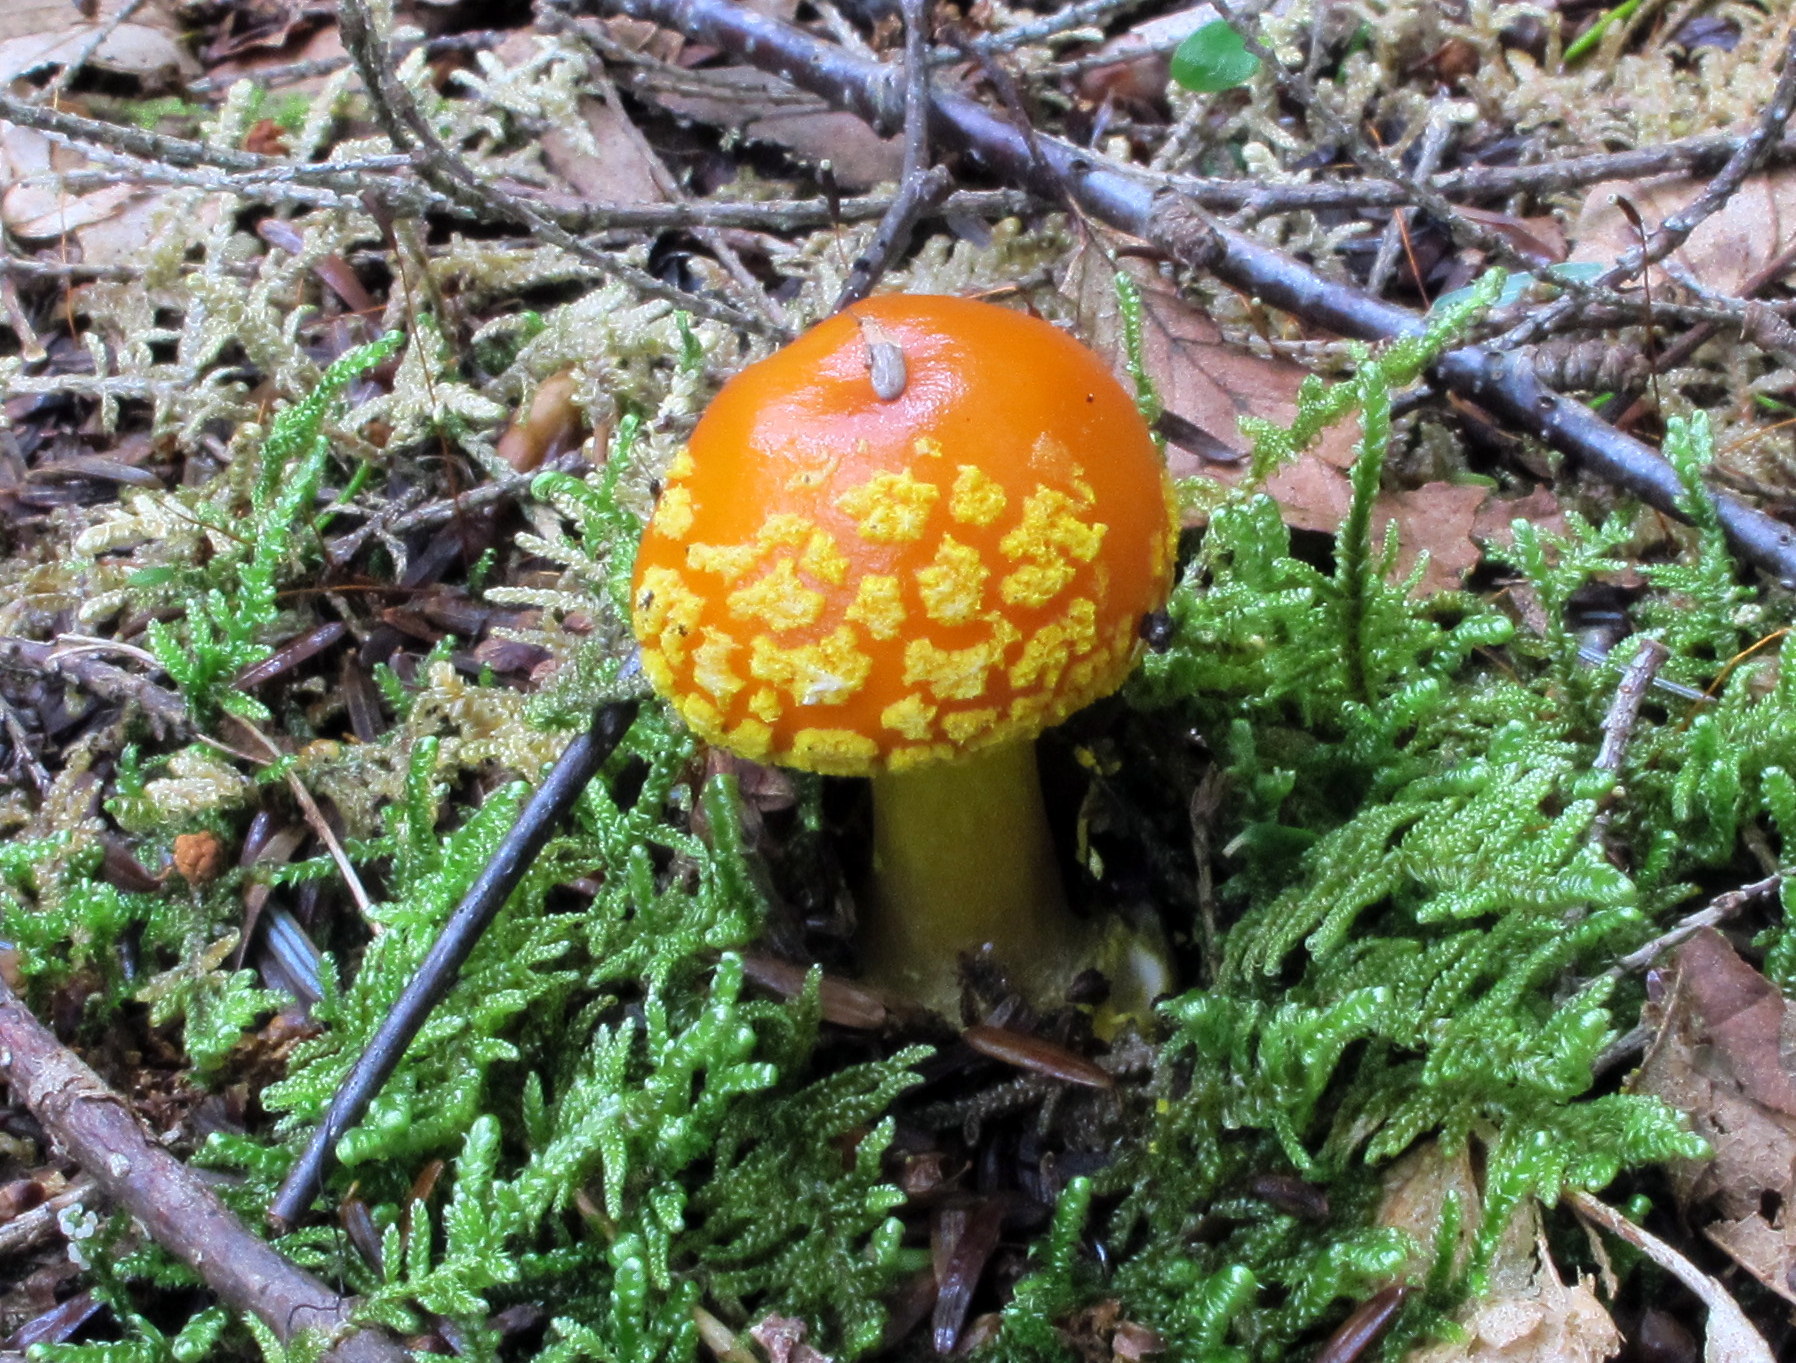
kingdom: Fungi
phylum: Basidiomycota
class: Agaricomycetes
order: Agaricales
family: Amanitaceae
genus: Amanita
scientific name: Amanita flavoconia
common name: Yellow patches
